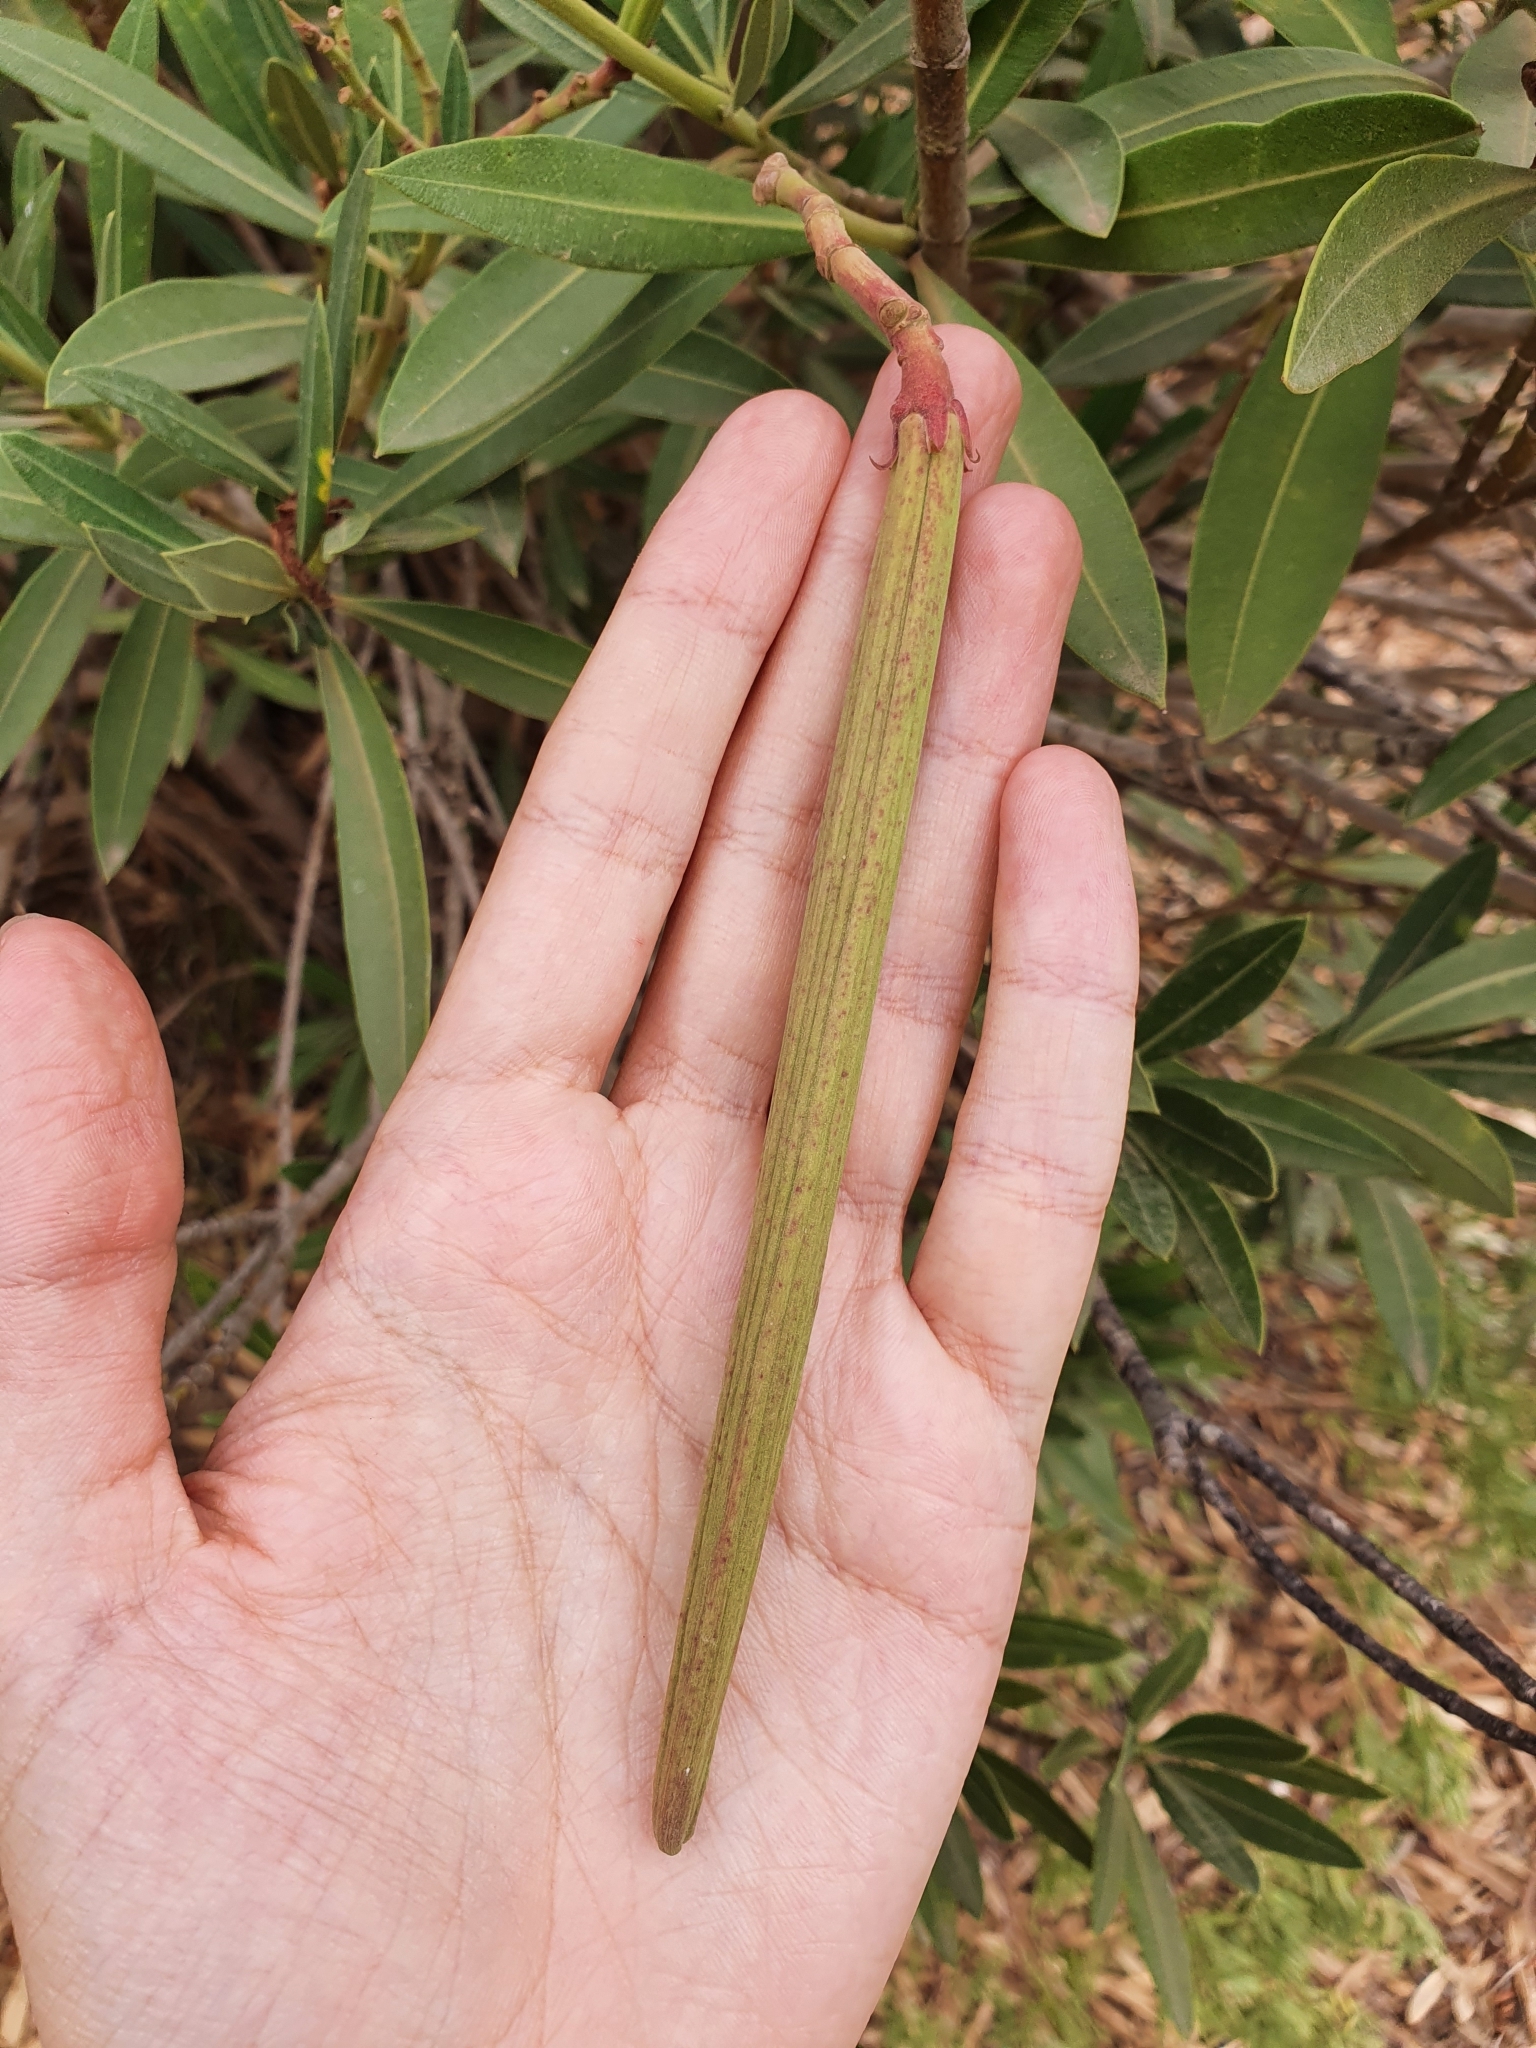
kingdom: Plantae
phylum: Tracheophyta
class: Magnoliopsida
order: Gentianales
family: Apocynaceae
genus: Nerium
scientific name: Nerium oleander
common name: Oleander
